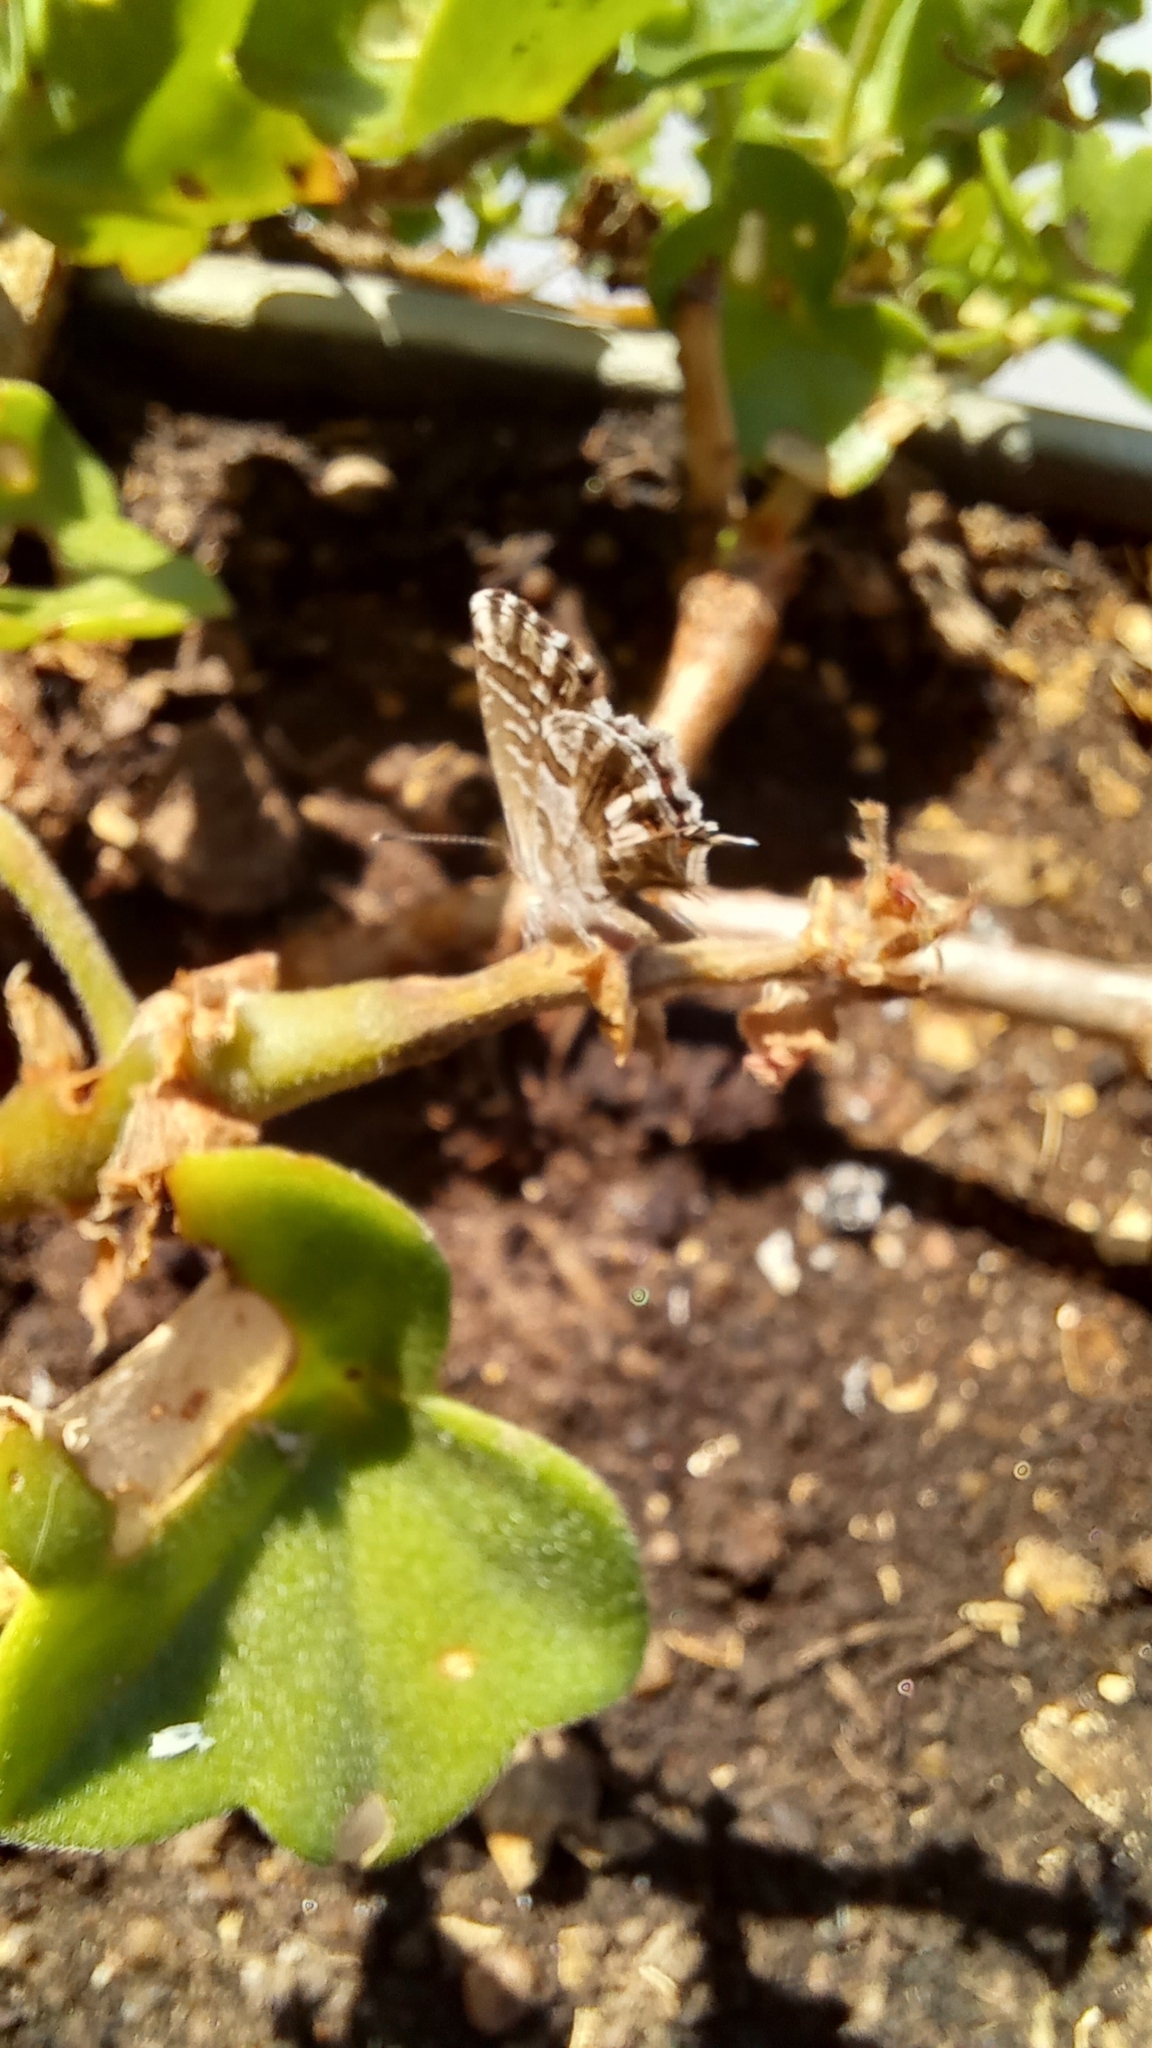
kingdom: Animalia
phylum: Arthropoda
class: Insecta
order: Lepidoptera
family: Lycaenidae
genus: Cacyreus
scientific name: Cacyreus marshalli
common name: Geranium bronze
